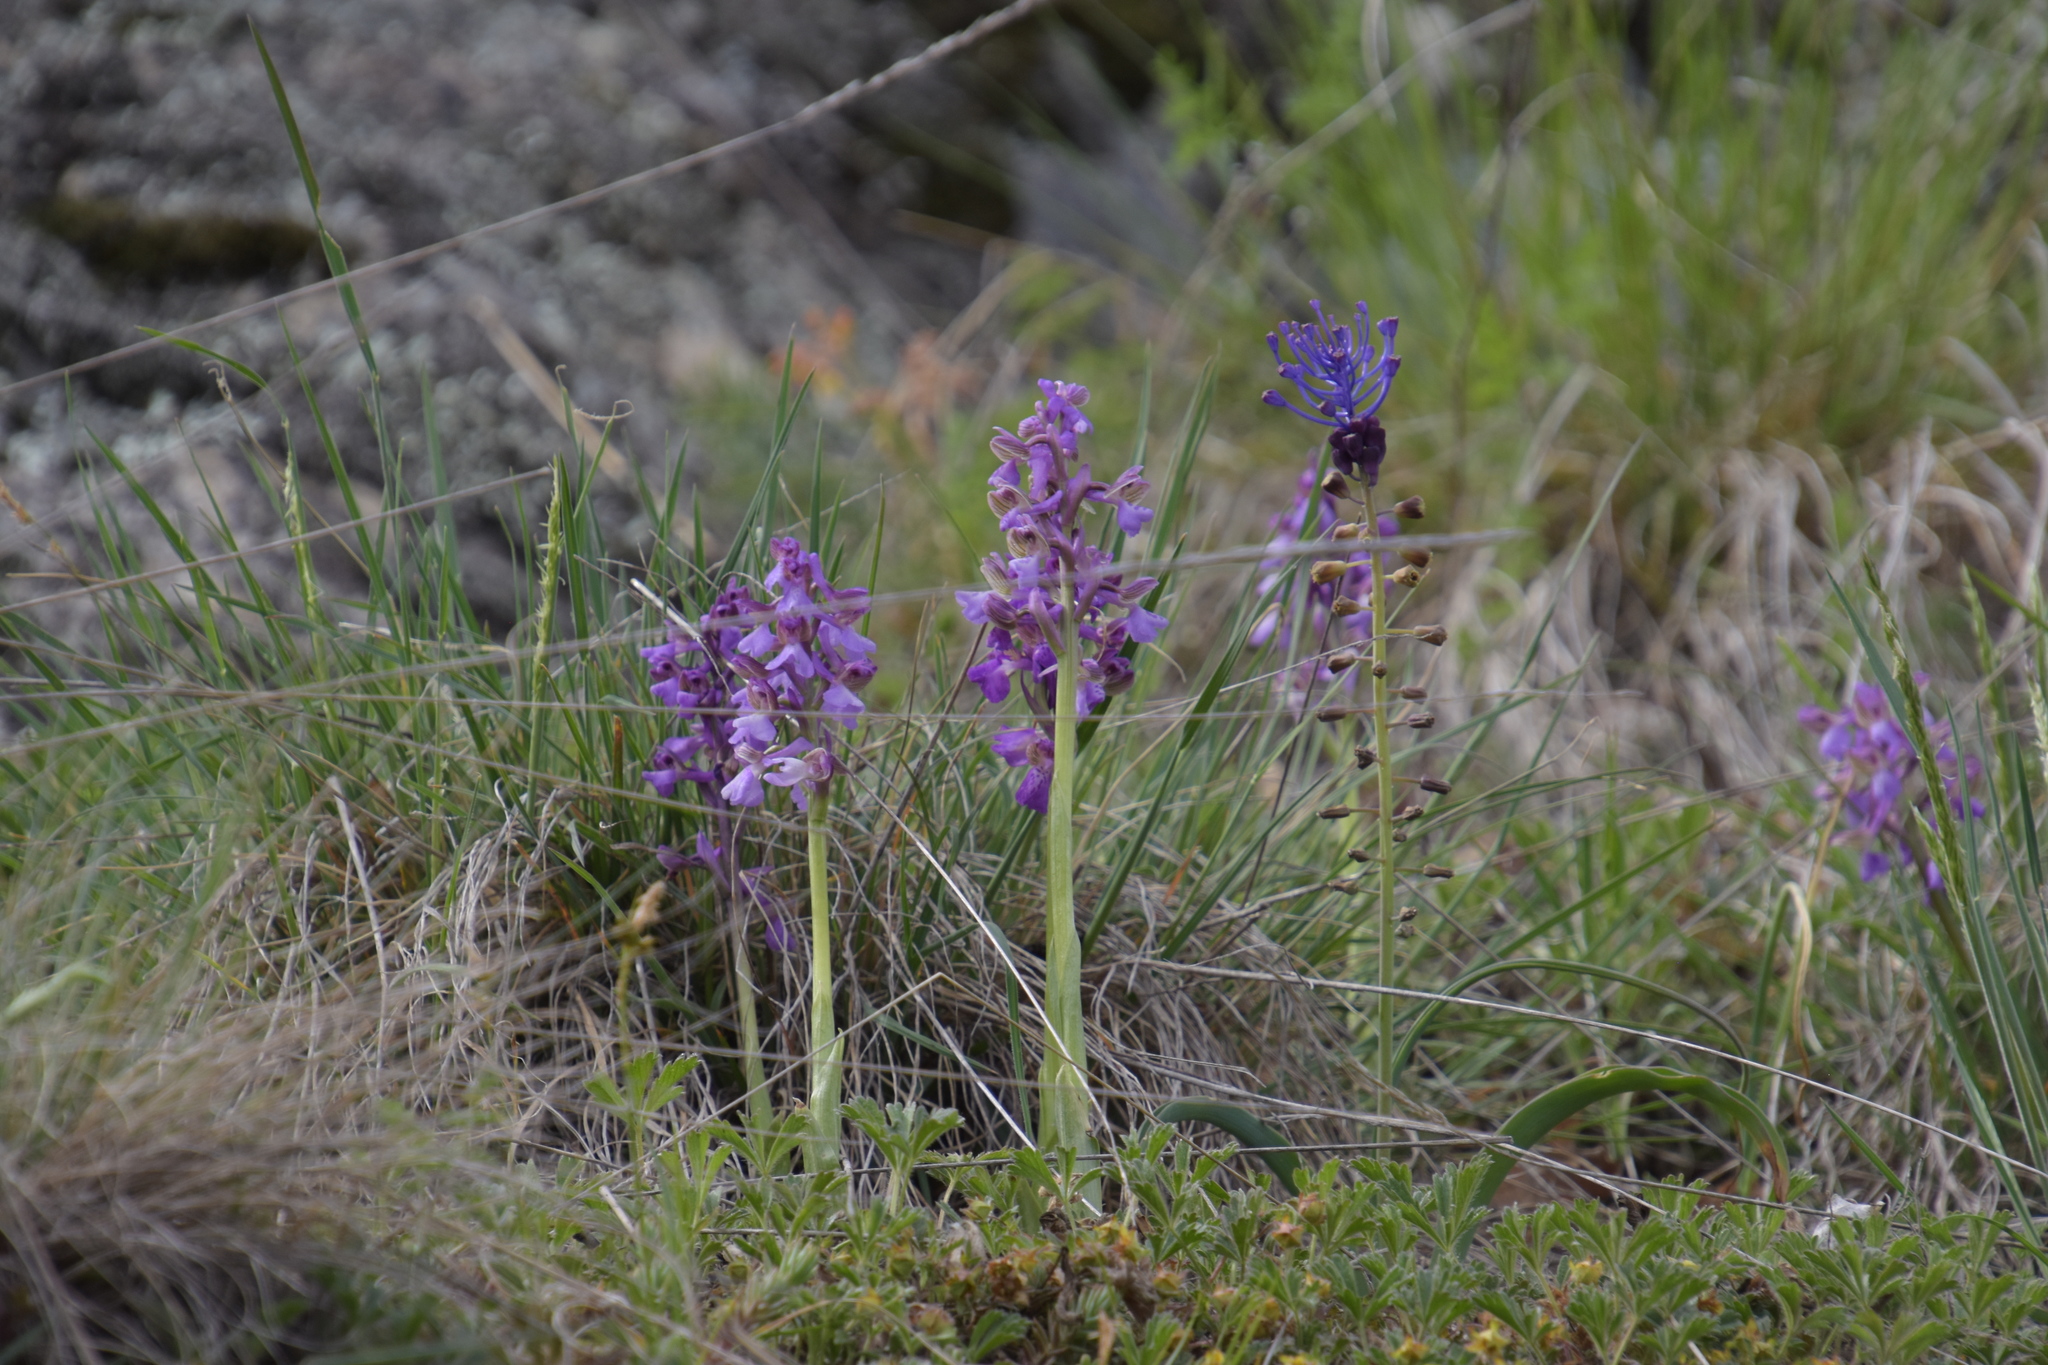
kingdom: Plantae
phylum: Tracheophyta
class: Liliopsida
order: Asparagales
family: Orchidaceae
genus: Anacamptis
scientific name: Anacamptis morio
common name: Green-winged orchid
